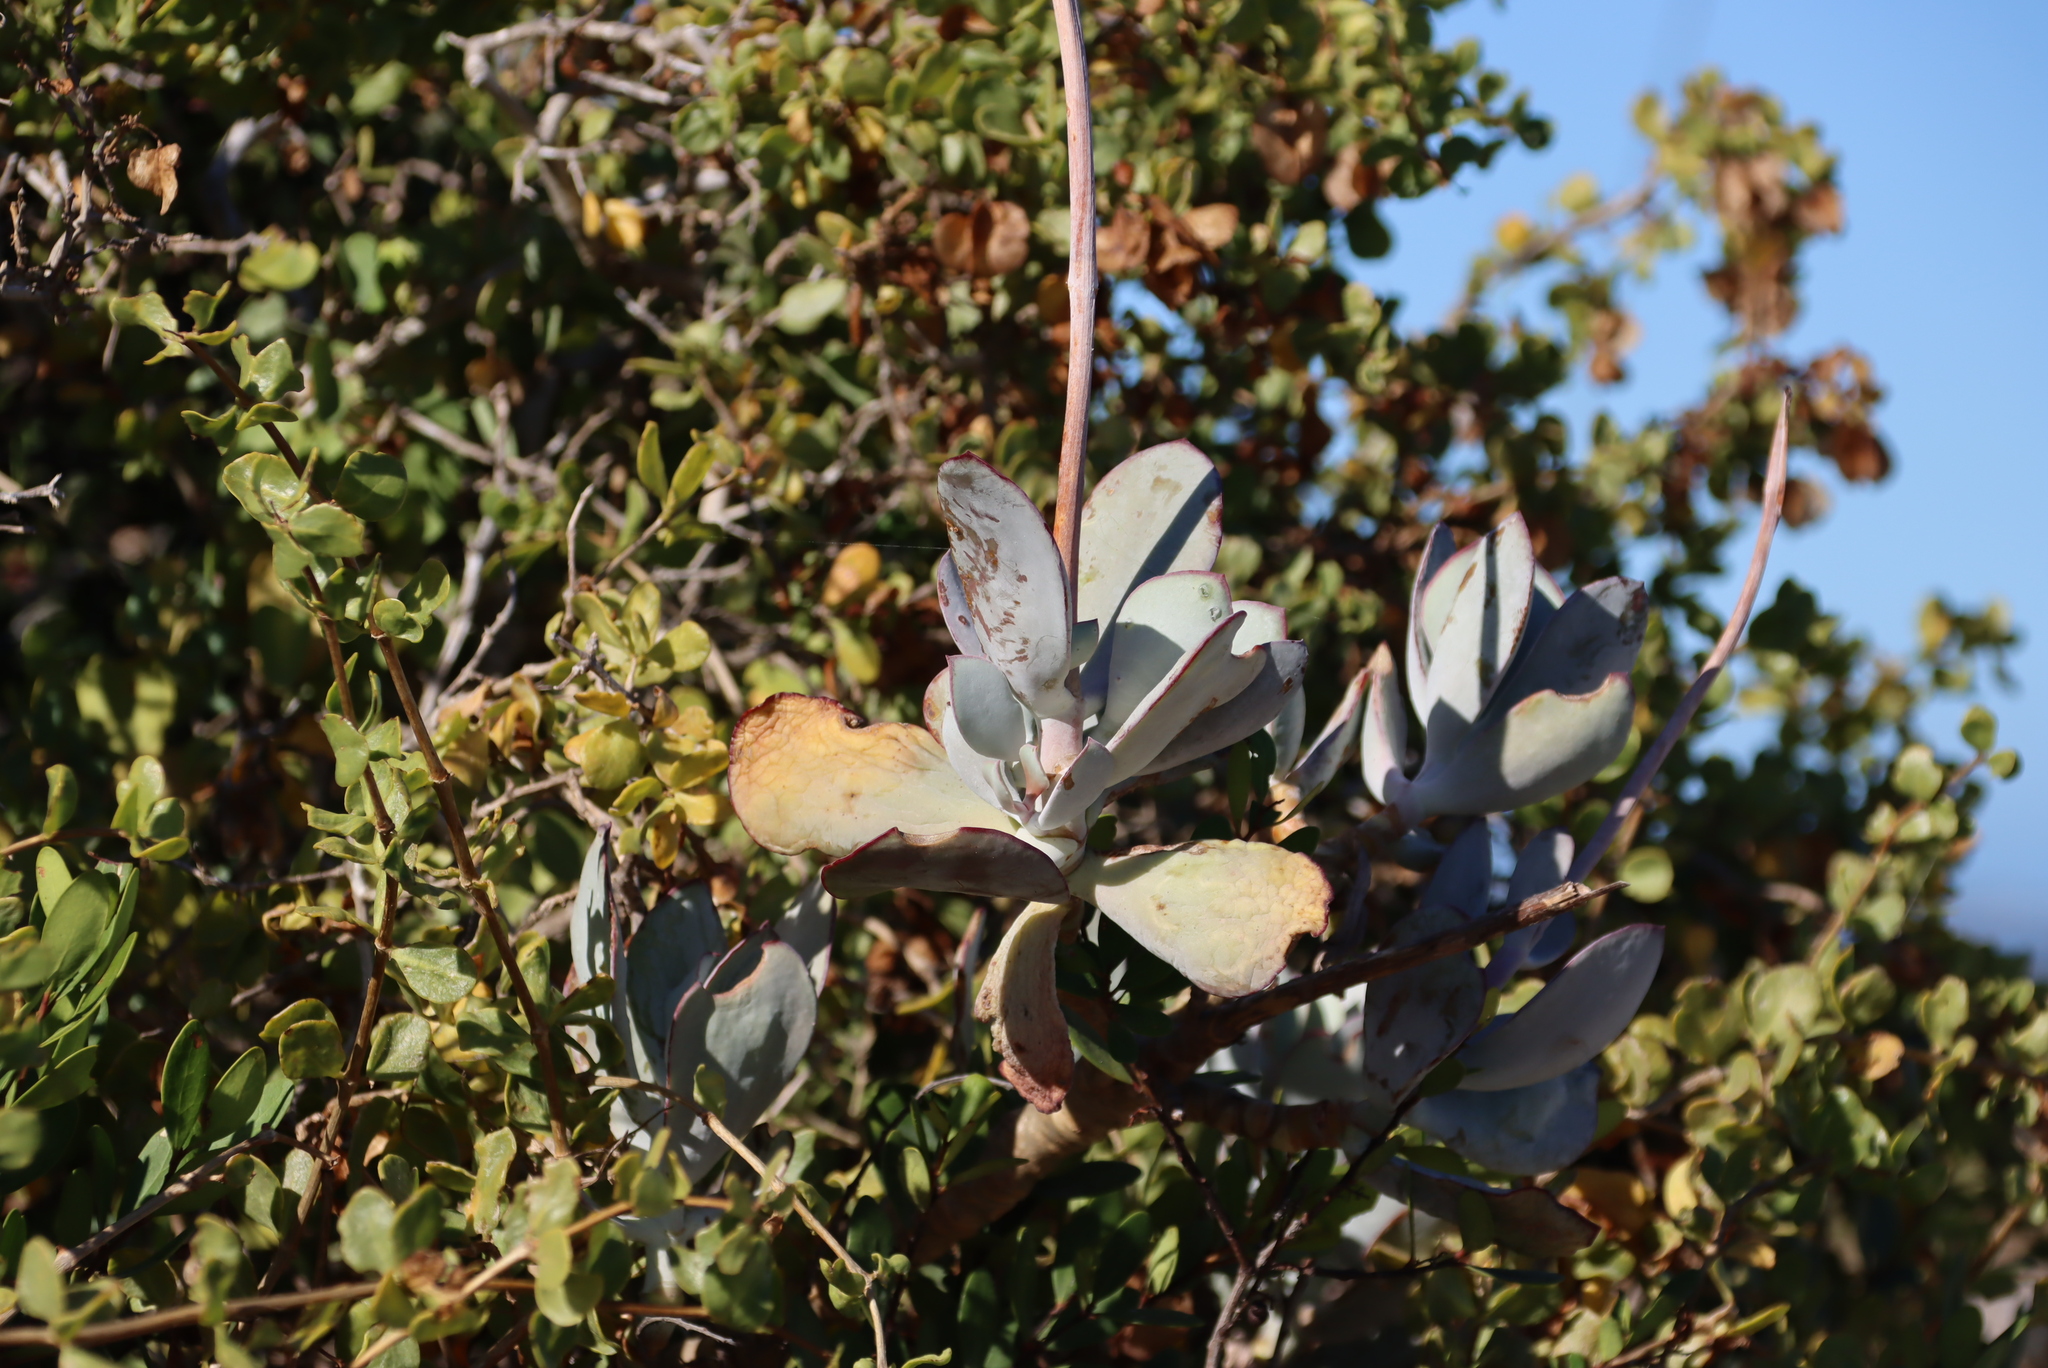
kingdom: Plantae
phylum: Tracheophyta
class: Magnoliopsida
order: Saxifragales
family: Crassulaceae
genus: Cotyledon
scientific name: Cotyledon orbiculata
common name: Pig's ear
